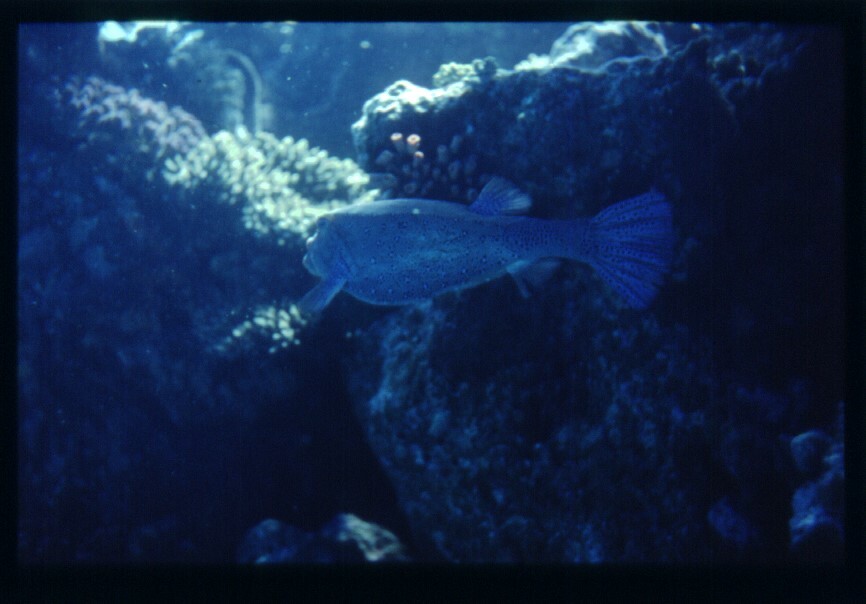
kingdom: Animalia
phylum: Chordata
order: Tetraodontiformes
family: Ostraciidae
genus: Ostracion
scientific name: Ostracion cubicus
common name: Cube trunkfish
